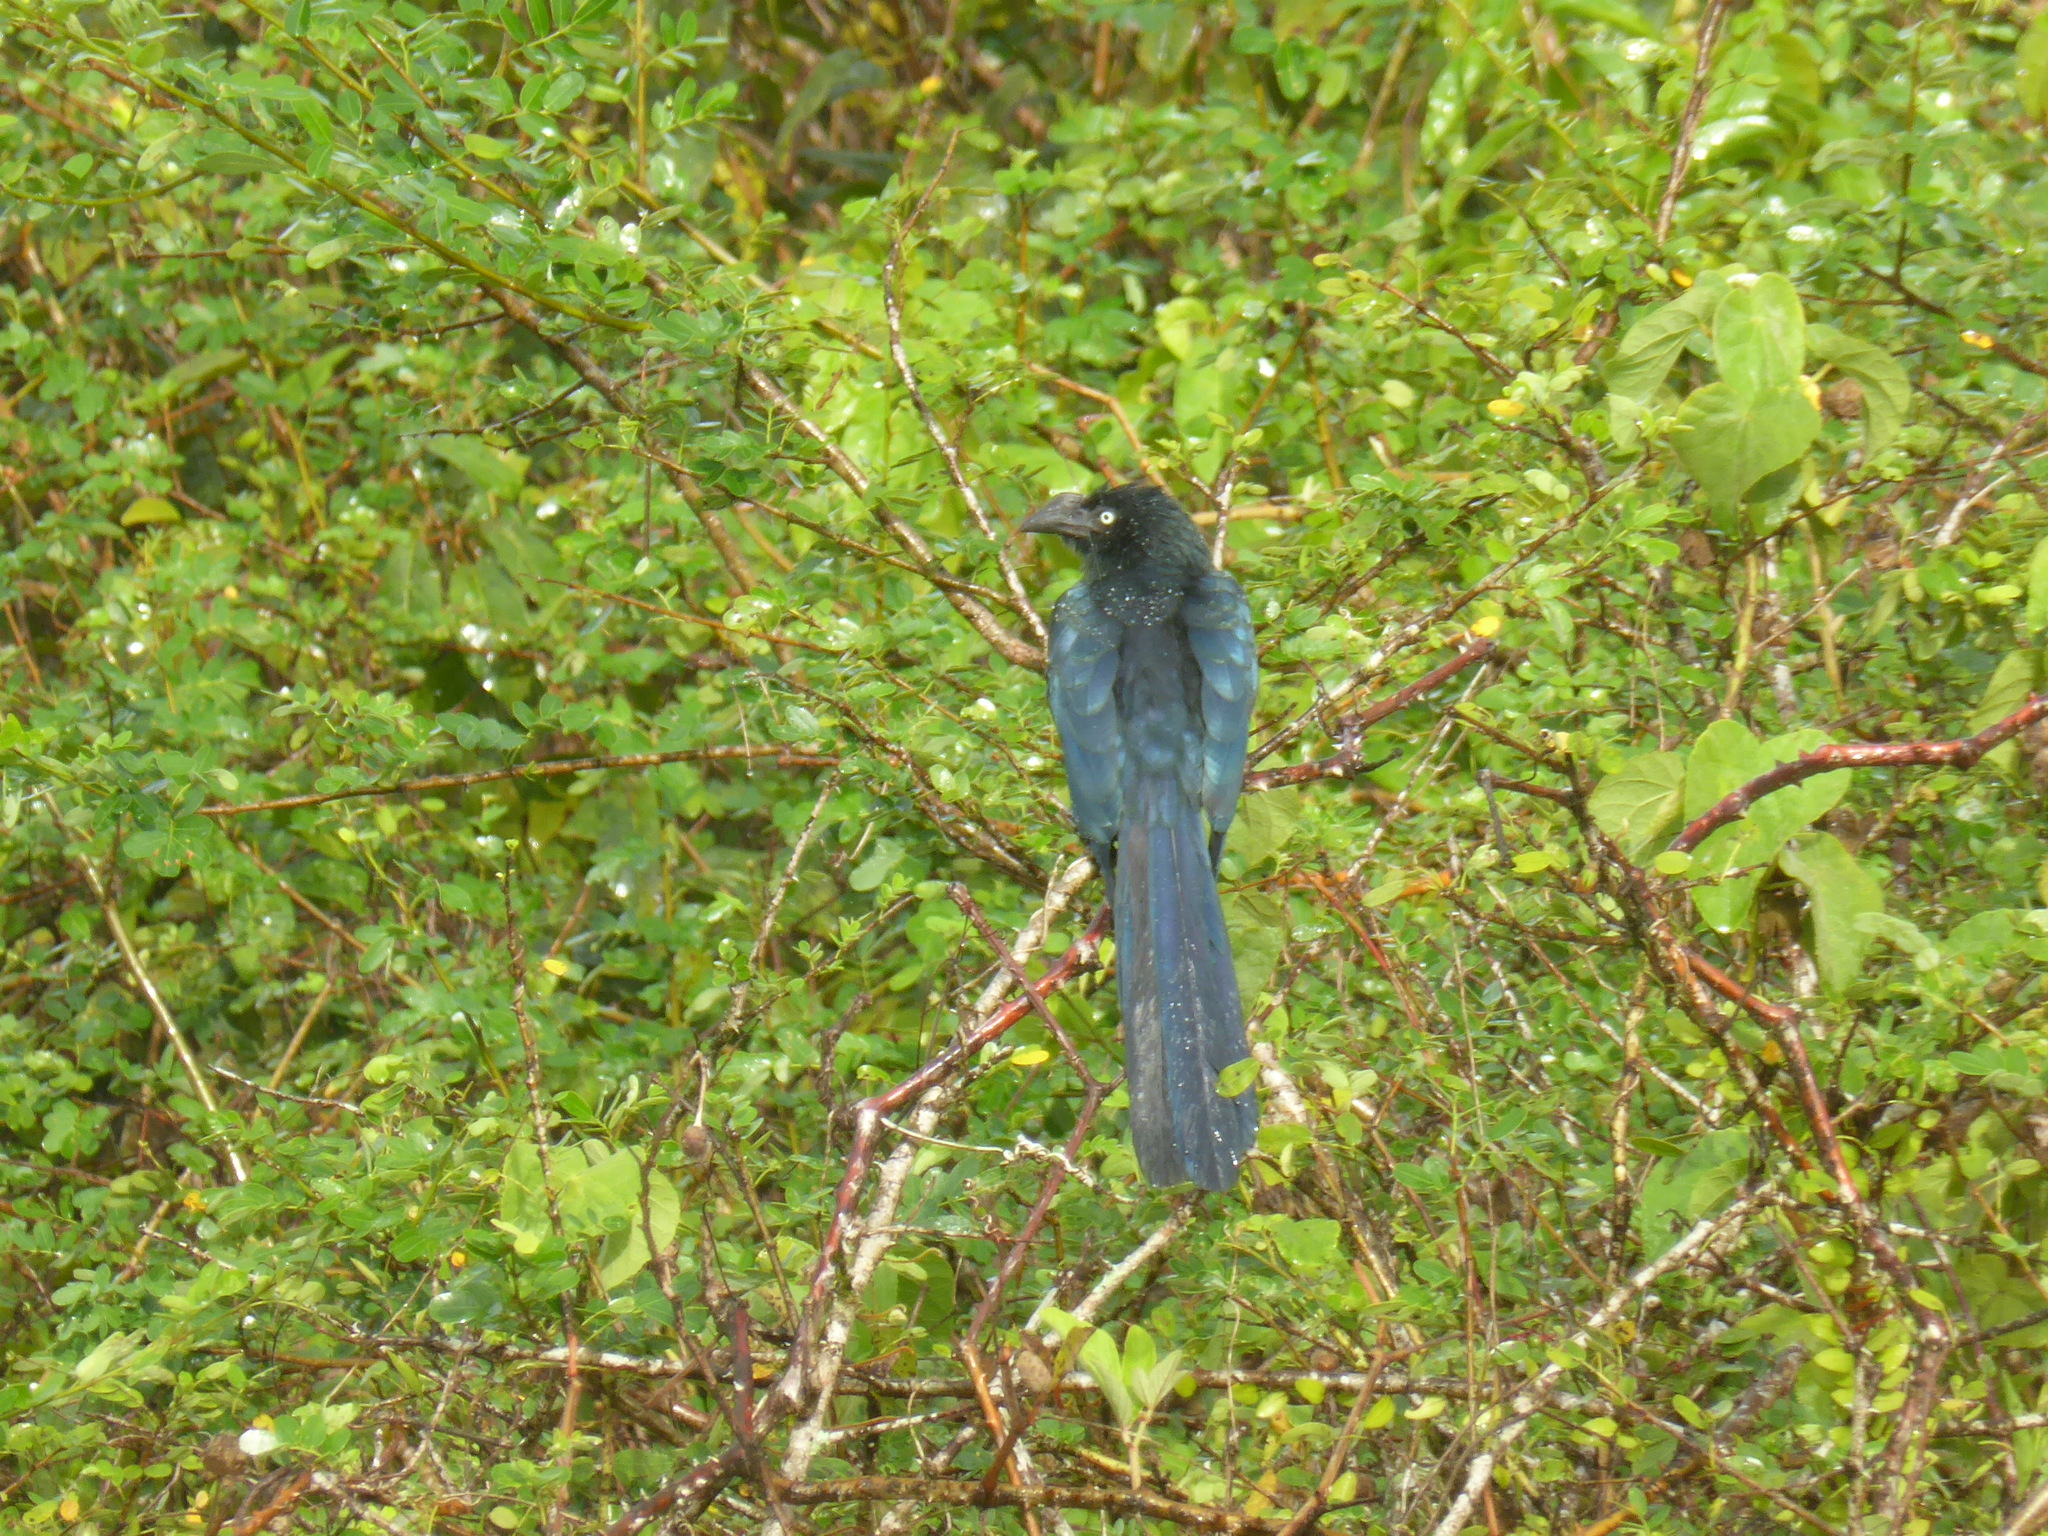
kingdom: Animalia
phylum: Chordata
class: Aves
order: Cuculiformes
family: Cuculidae
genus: Crotophaga
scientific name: Crotophaga major
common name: Greater ani
